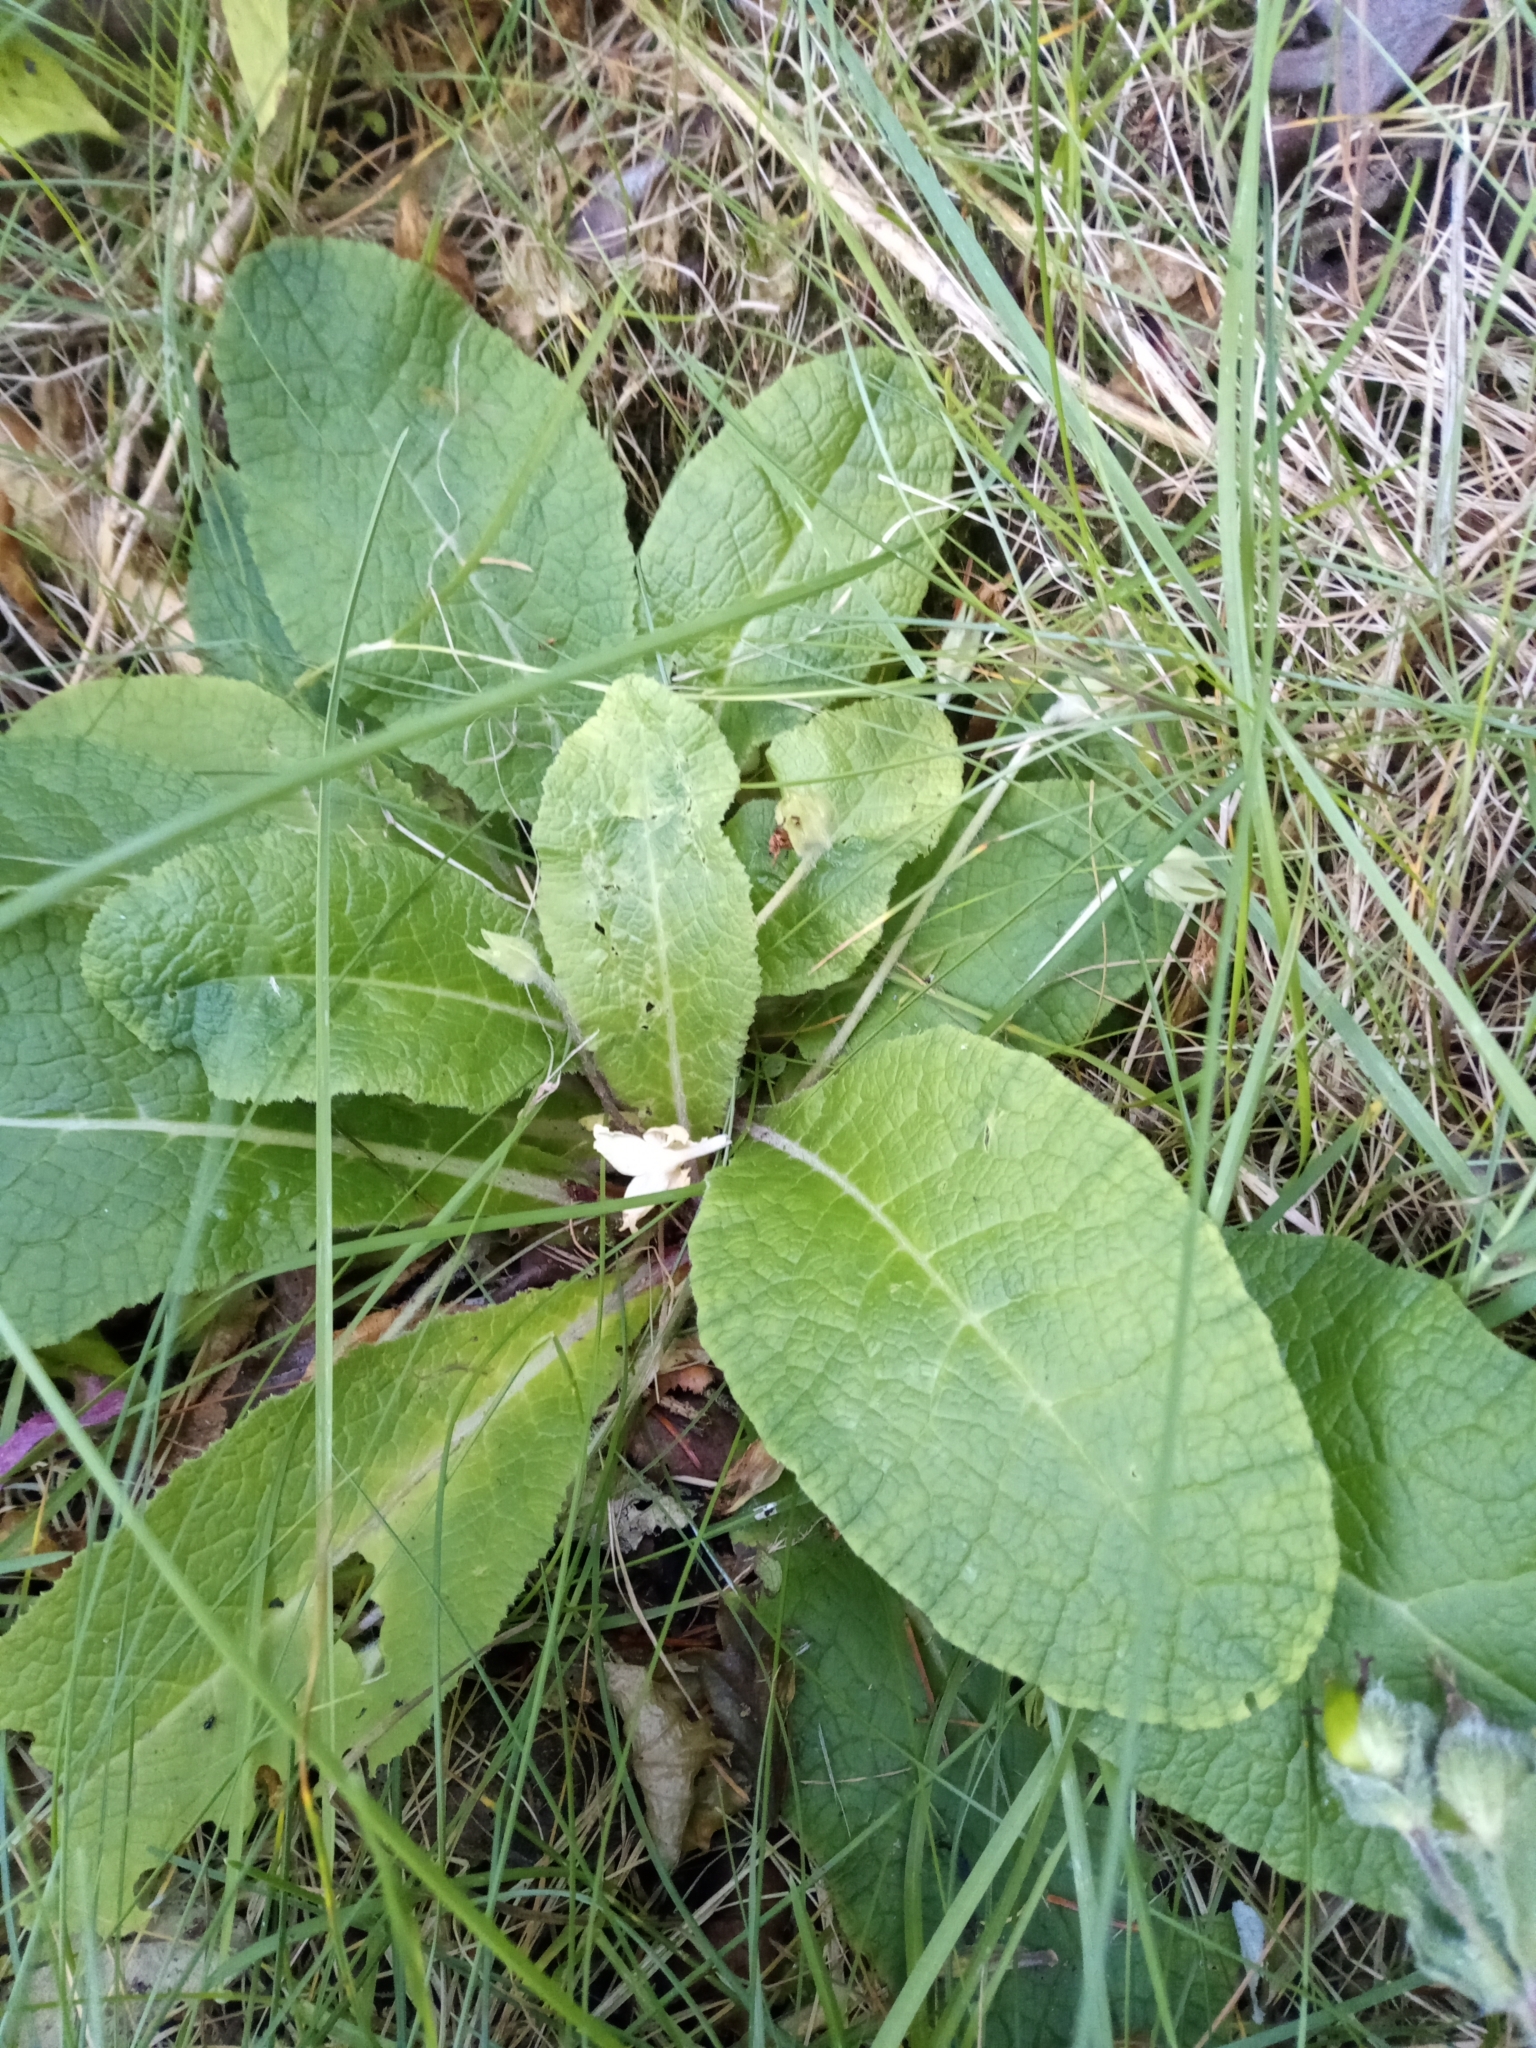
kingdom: Plantae
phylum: Tracheophyta
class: Magnoliopsida
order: Ericales
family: Primulaceae
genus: Primula
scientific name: Primula vulgaris
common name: Primrose
